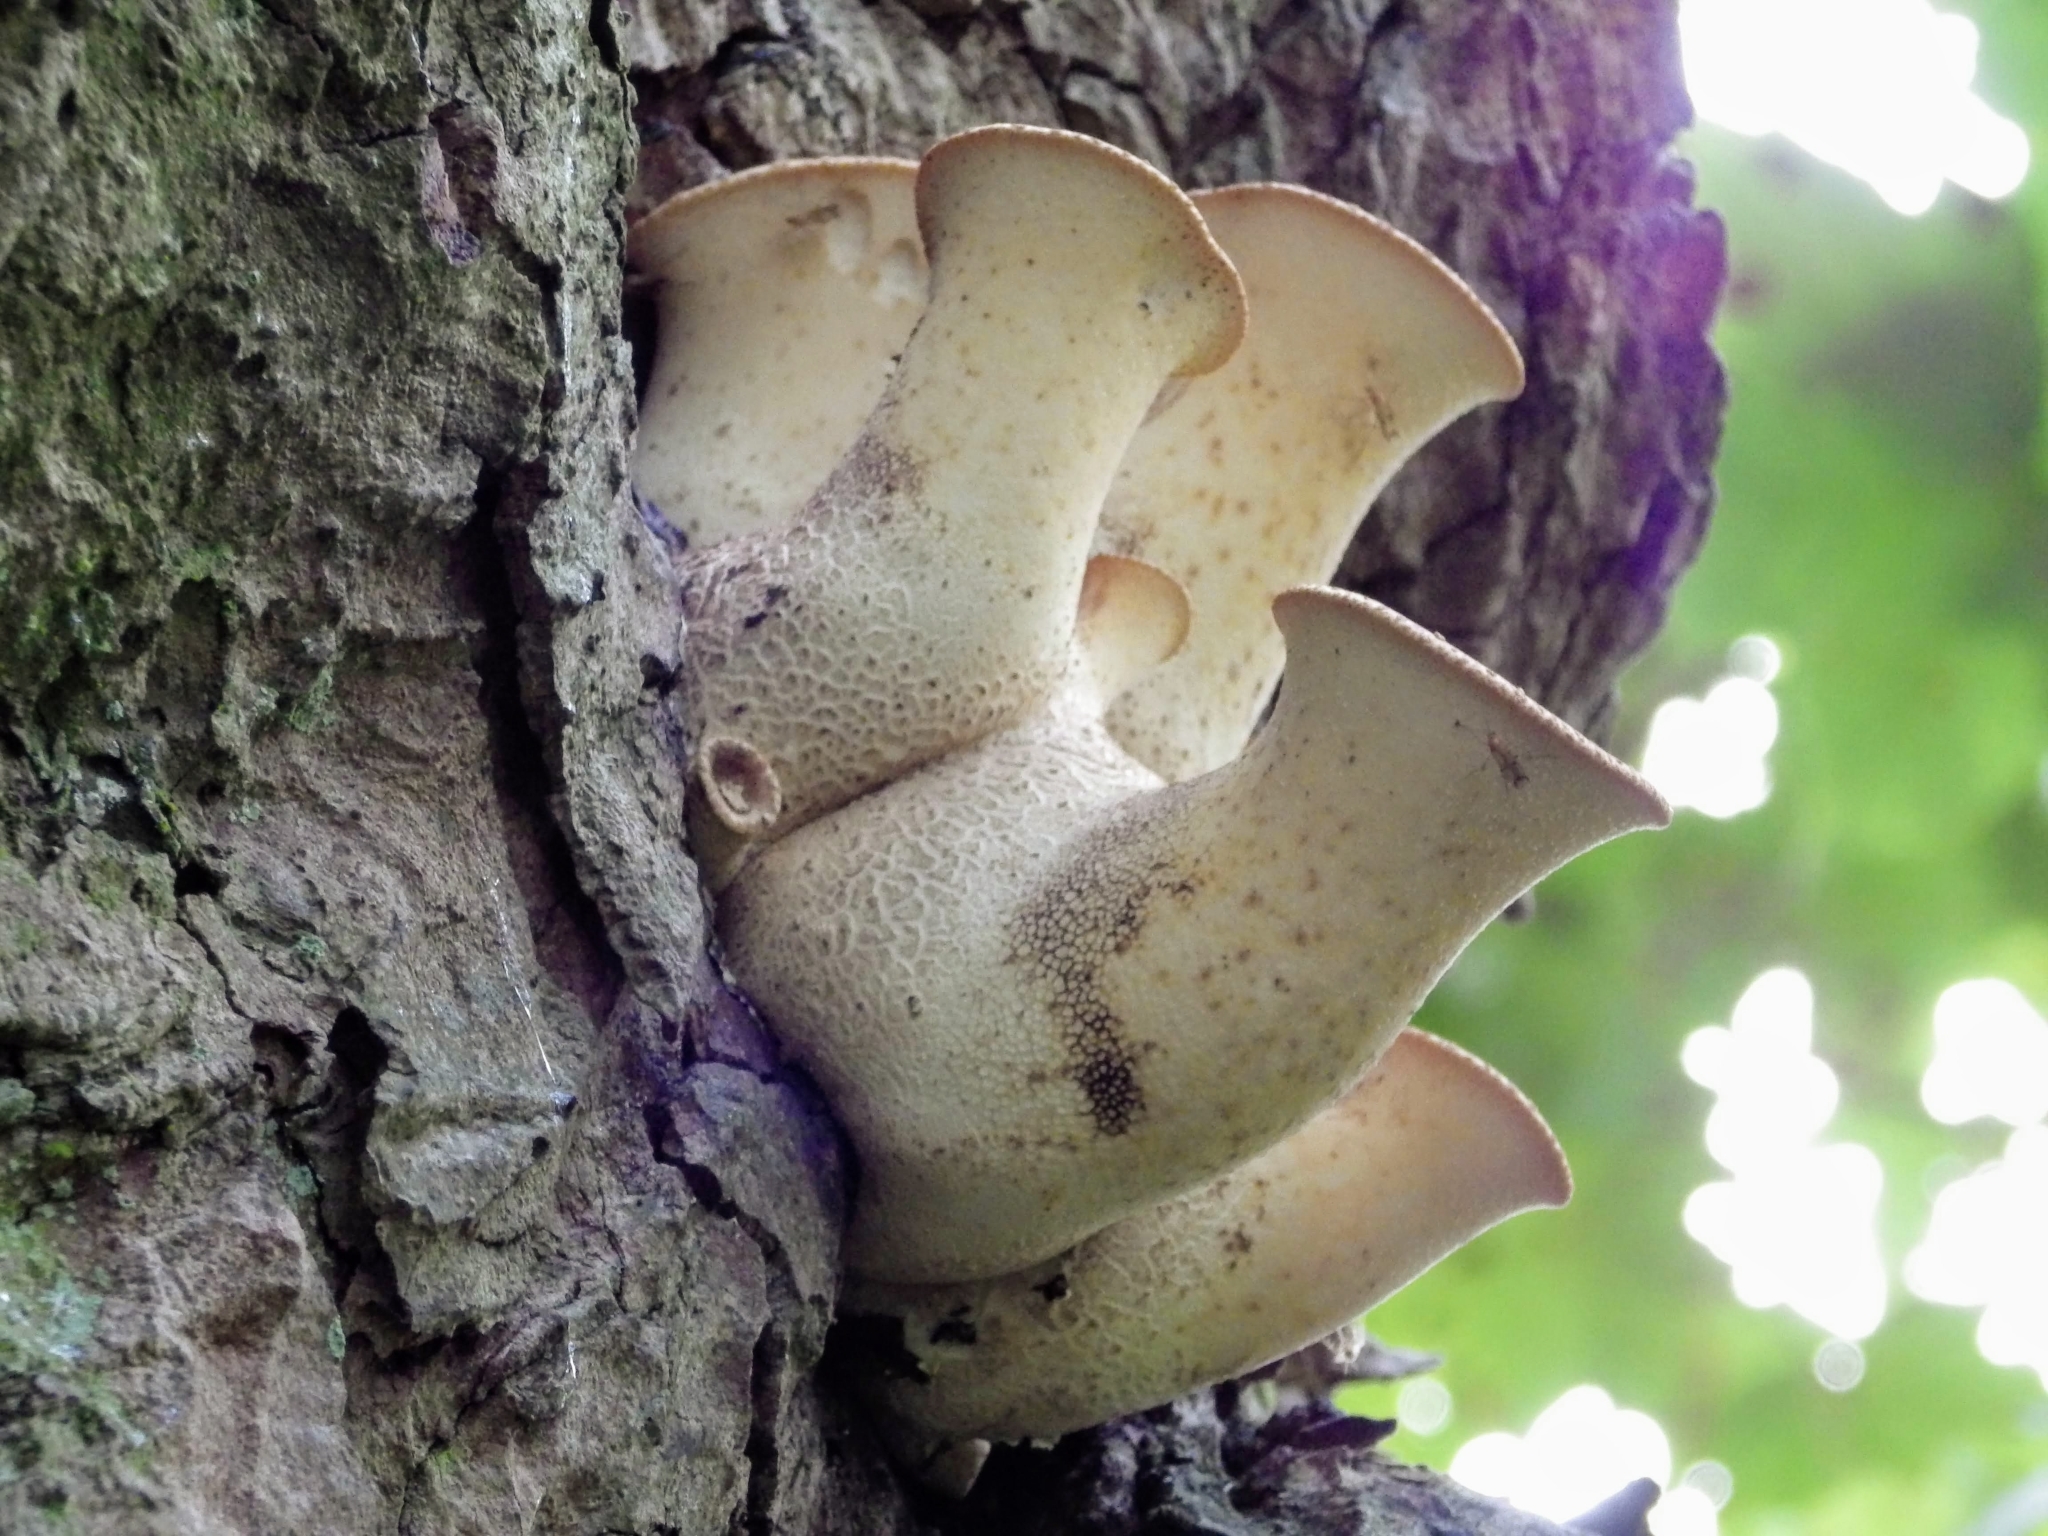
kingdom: Fungi
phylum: Basidiomycota
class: Agaricomycetes
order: Polyporales
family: Polyporaceae
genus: Cerioporus
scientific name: Cerioporus squamosus
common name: Dryad's saddle
